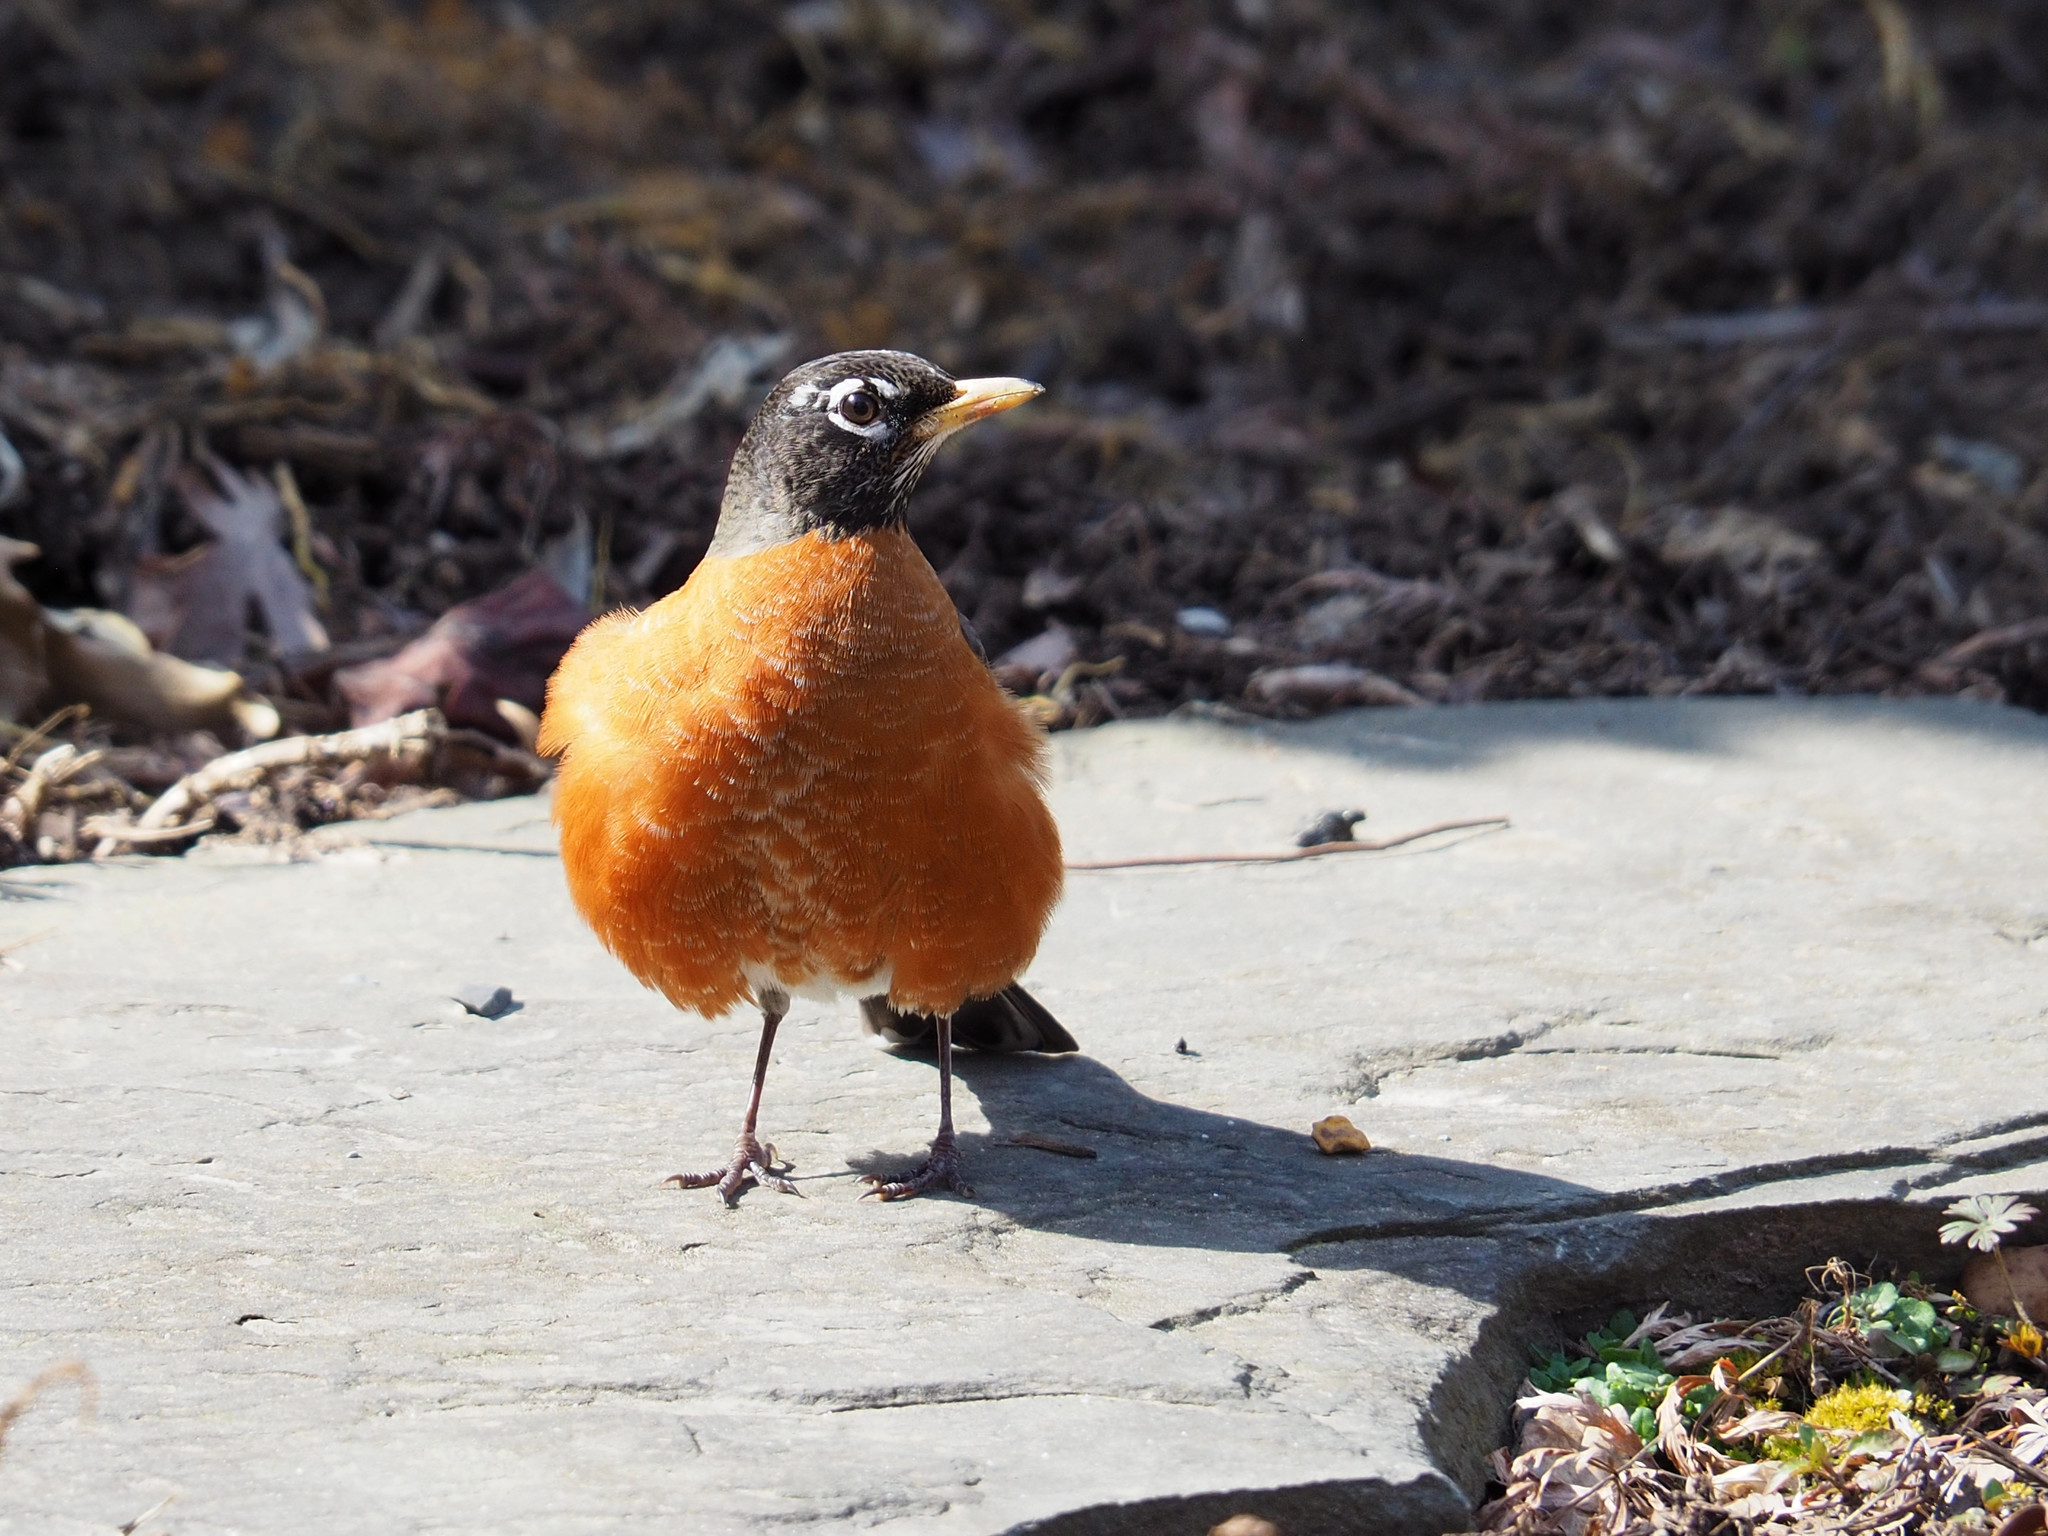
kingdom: Animalia
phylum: Chordata
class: Aves
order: Passeriformes
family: Turdidae
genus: Turdus
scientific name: Turdus migratorius
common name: American robin
